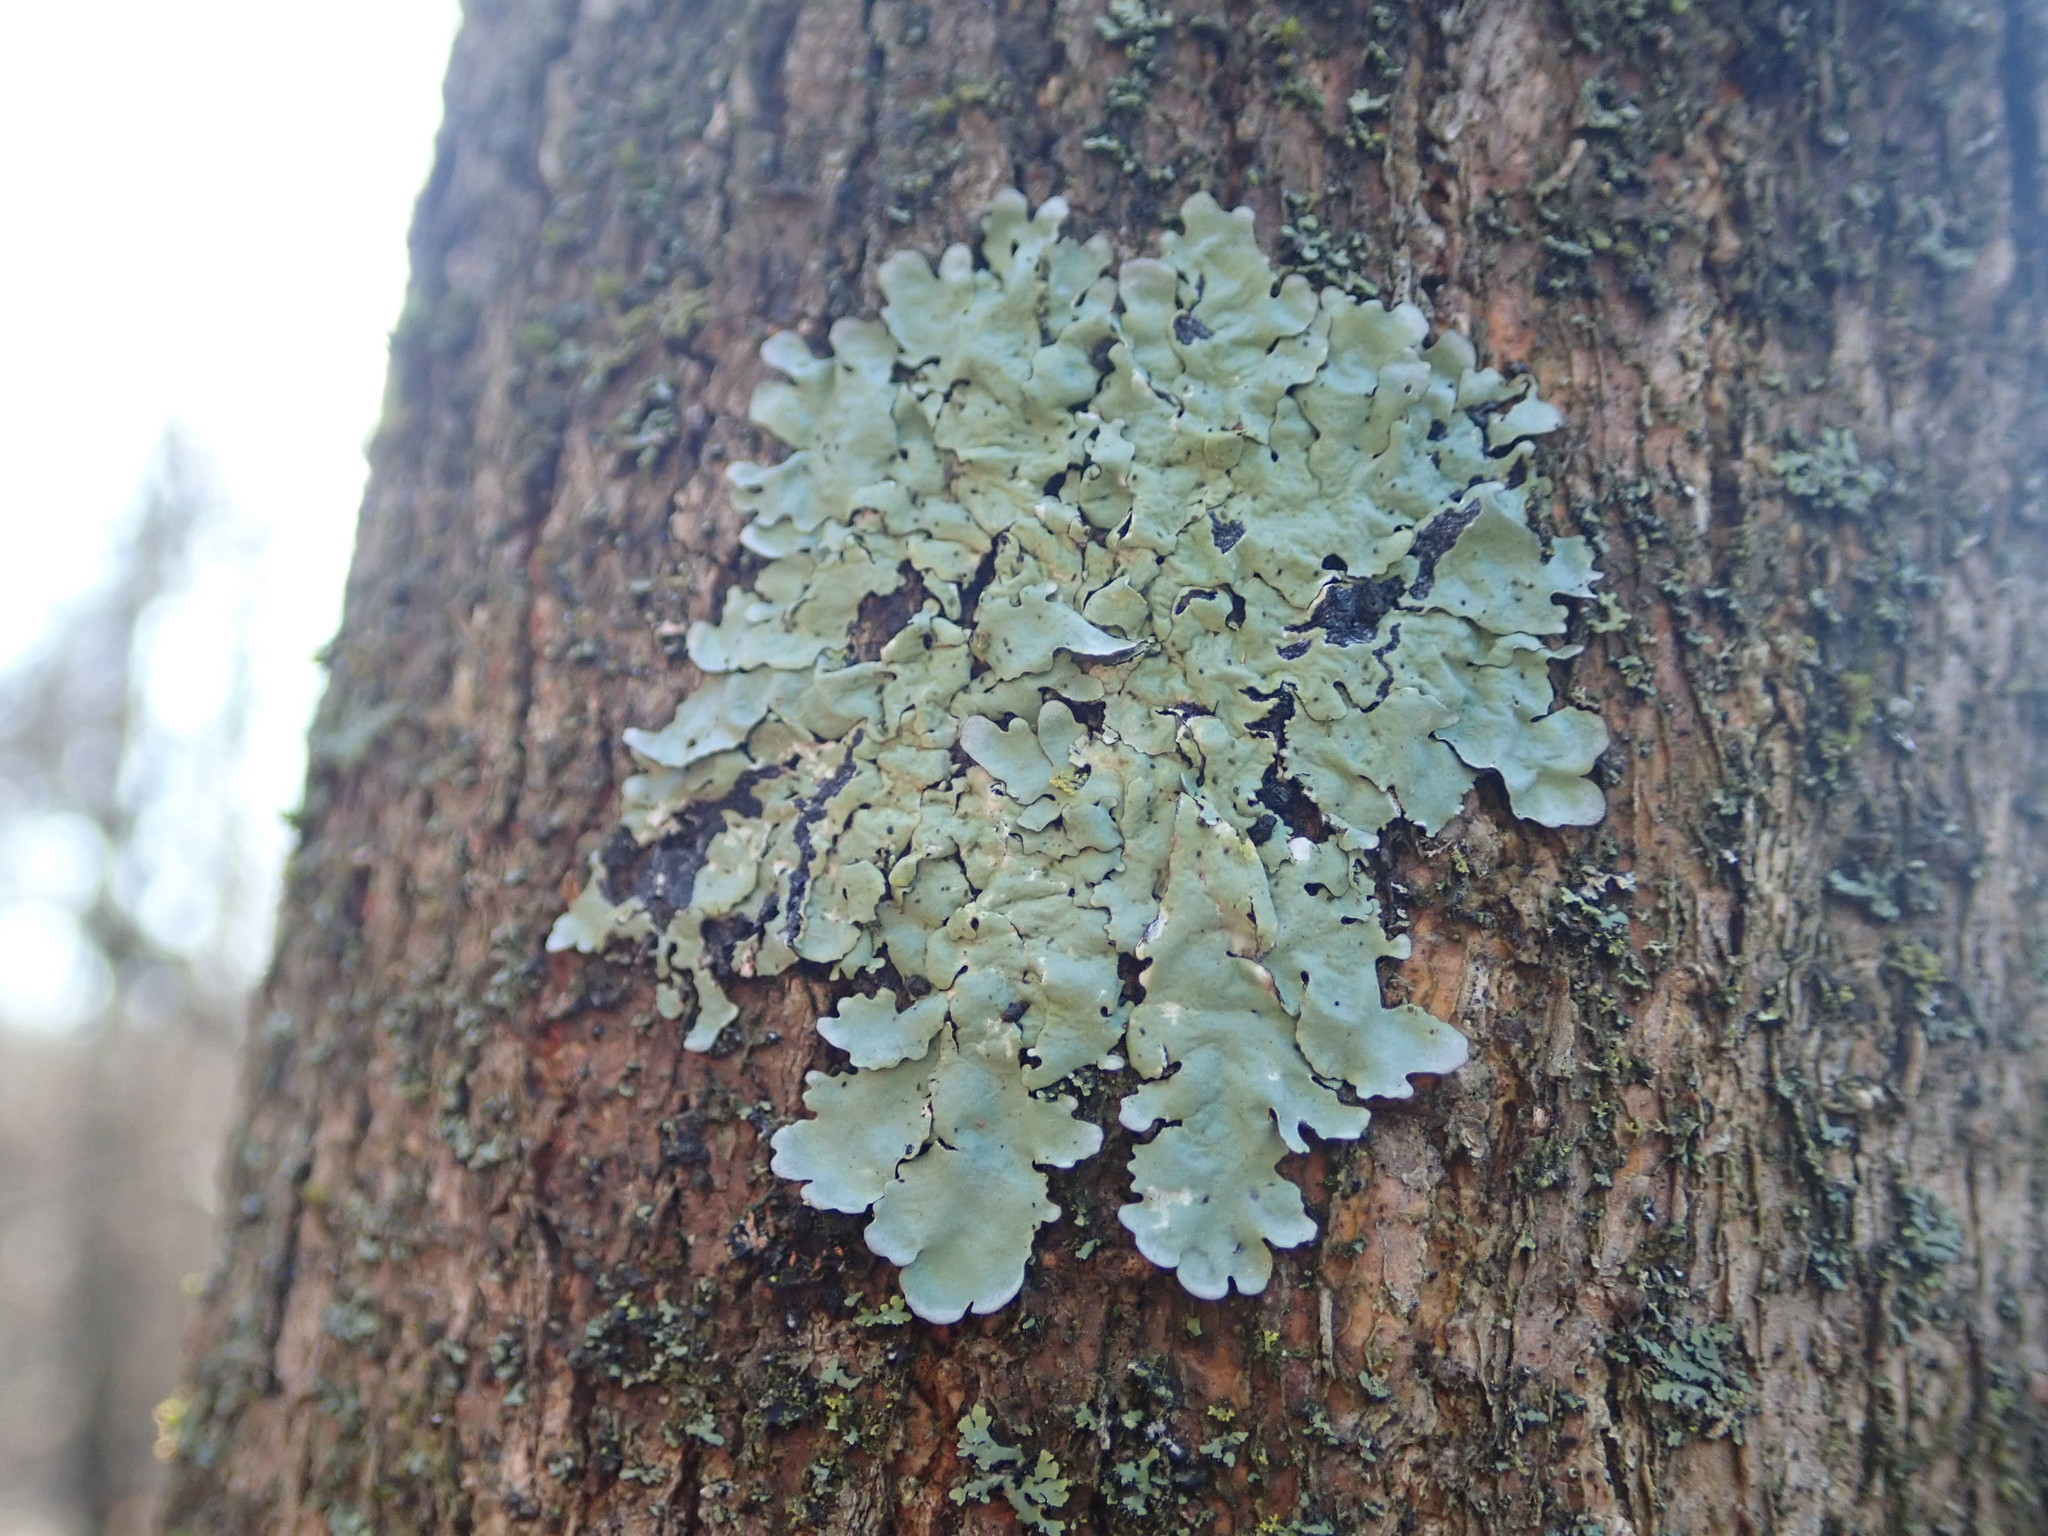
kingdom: Fungi
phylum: Ascomycota
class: Lecanoromycetes
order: Lecanorales
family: Parmeliaceae
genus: Flavoparmelia
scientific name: Flavoparmelia caperata
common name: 40-mile per hour lichen
